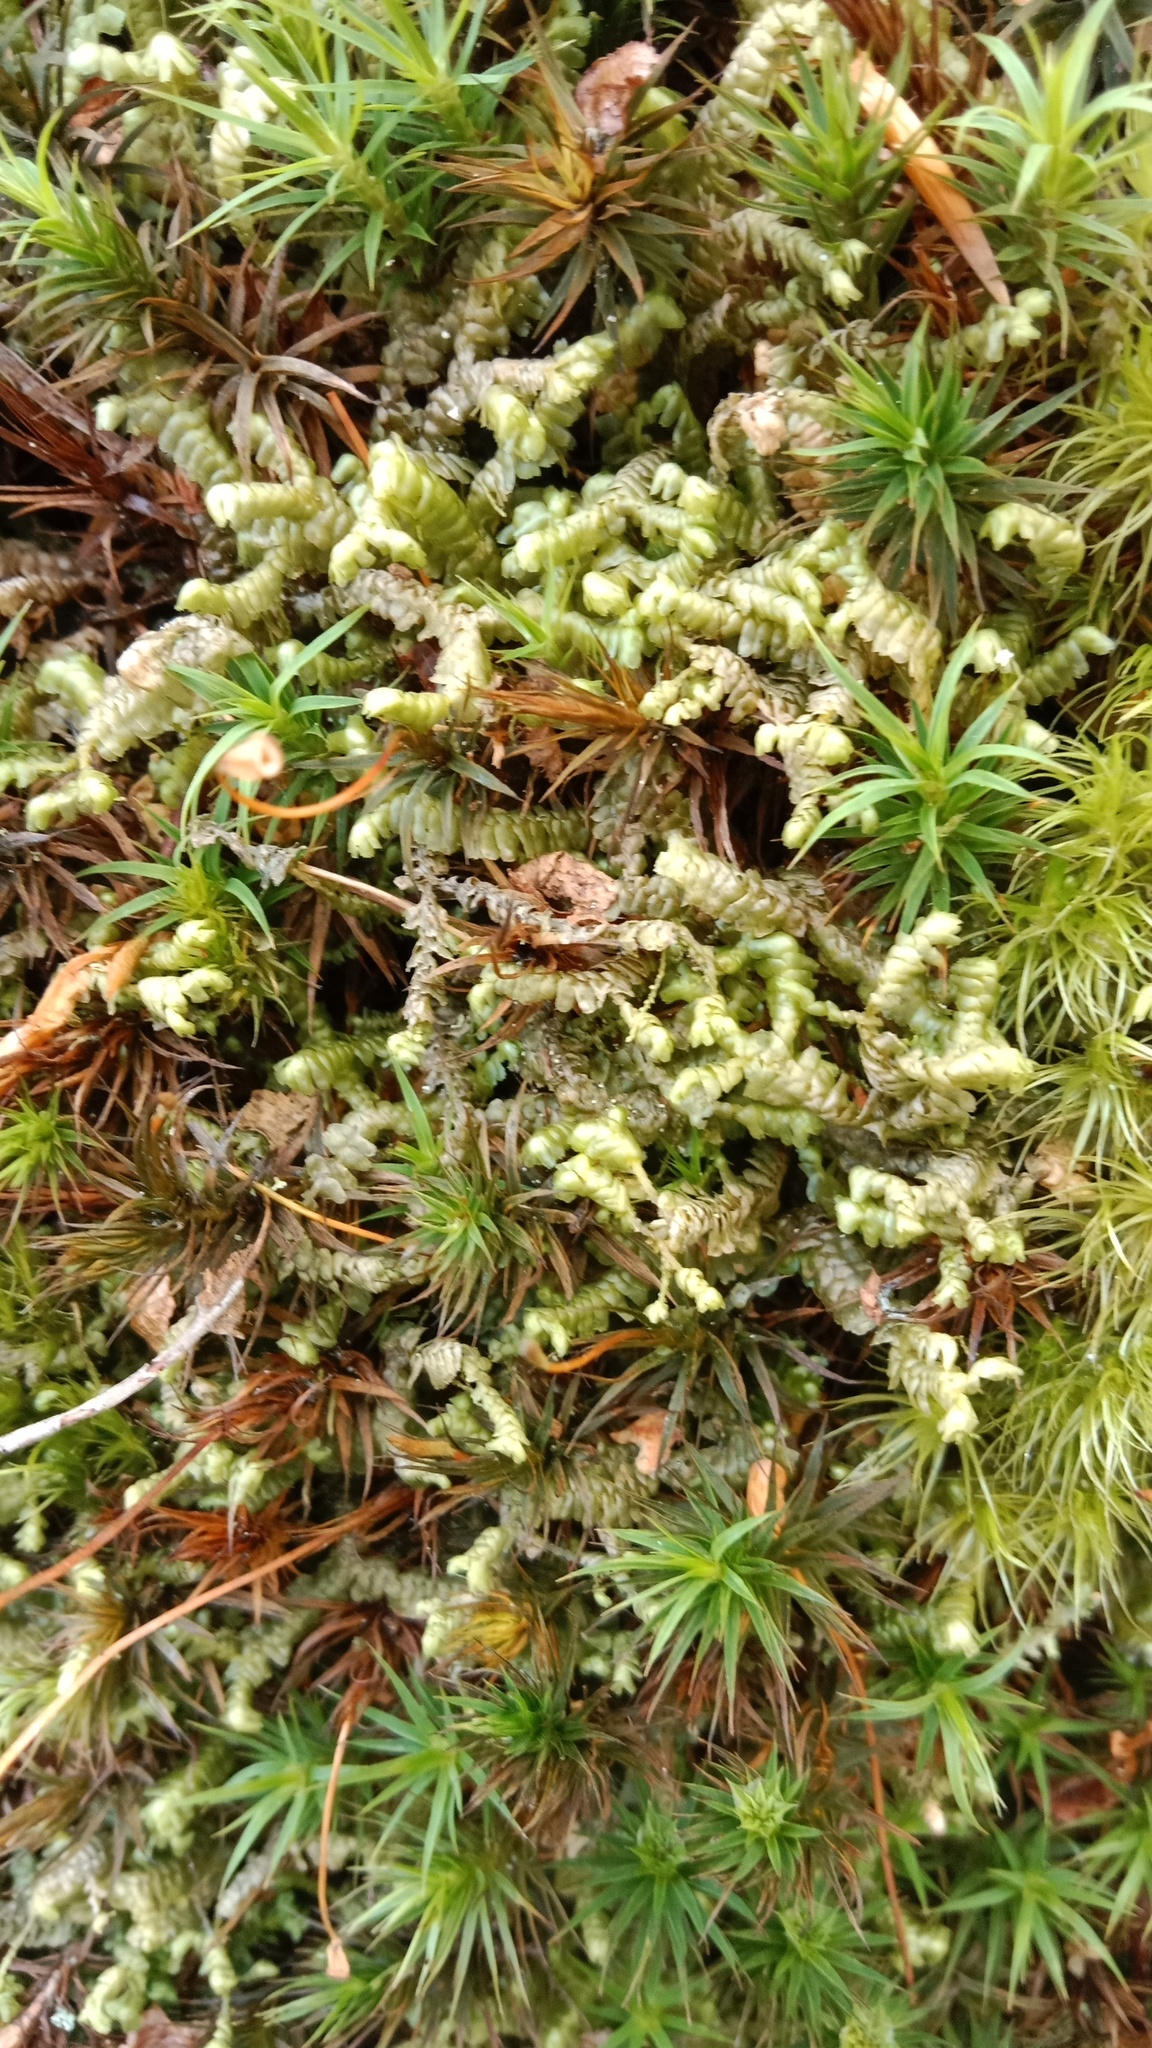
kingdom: Plantae
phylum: Marchantiophyta
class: Jungermanniopsida
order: Jungermanniales
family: Lepidoziaceae
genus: Bazzania
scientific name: Bazzania trilobata
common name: Three-lobed whipwort
